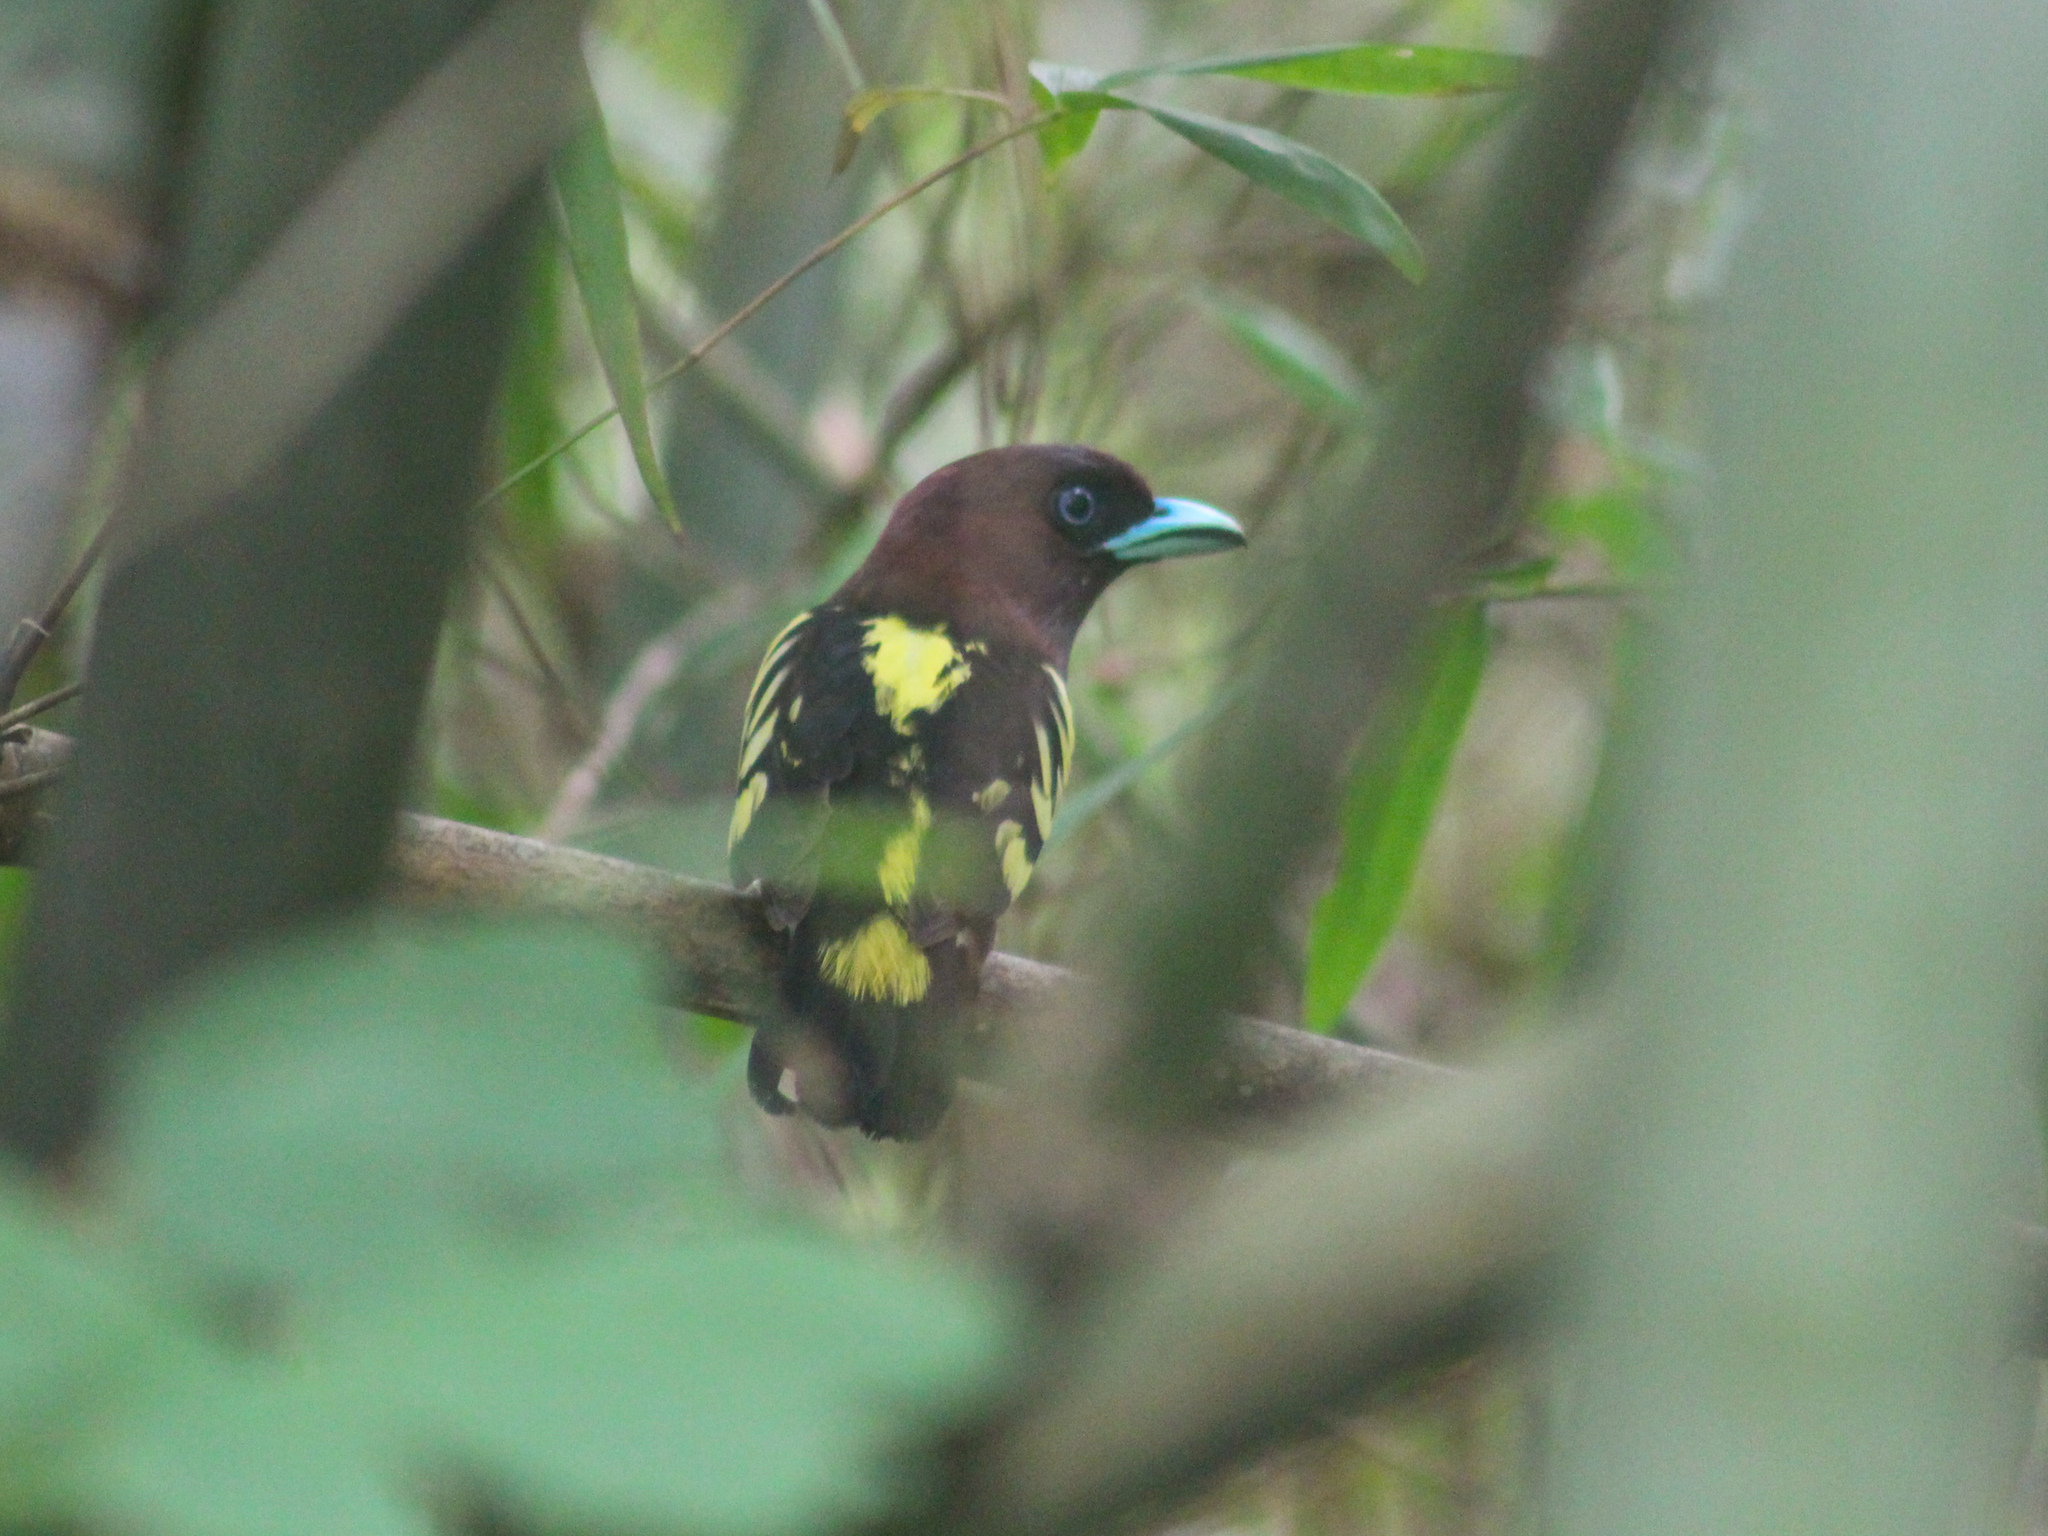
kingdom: Animalia
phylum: Chordata
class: Aves
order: Passeriformes
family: Eurylaimidae
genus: Eurylaimus
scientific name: Eurylaimus javanicus
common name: Banded broadbill
